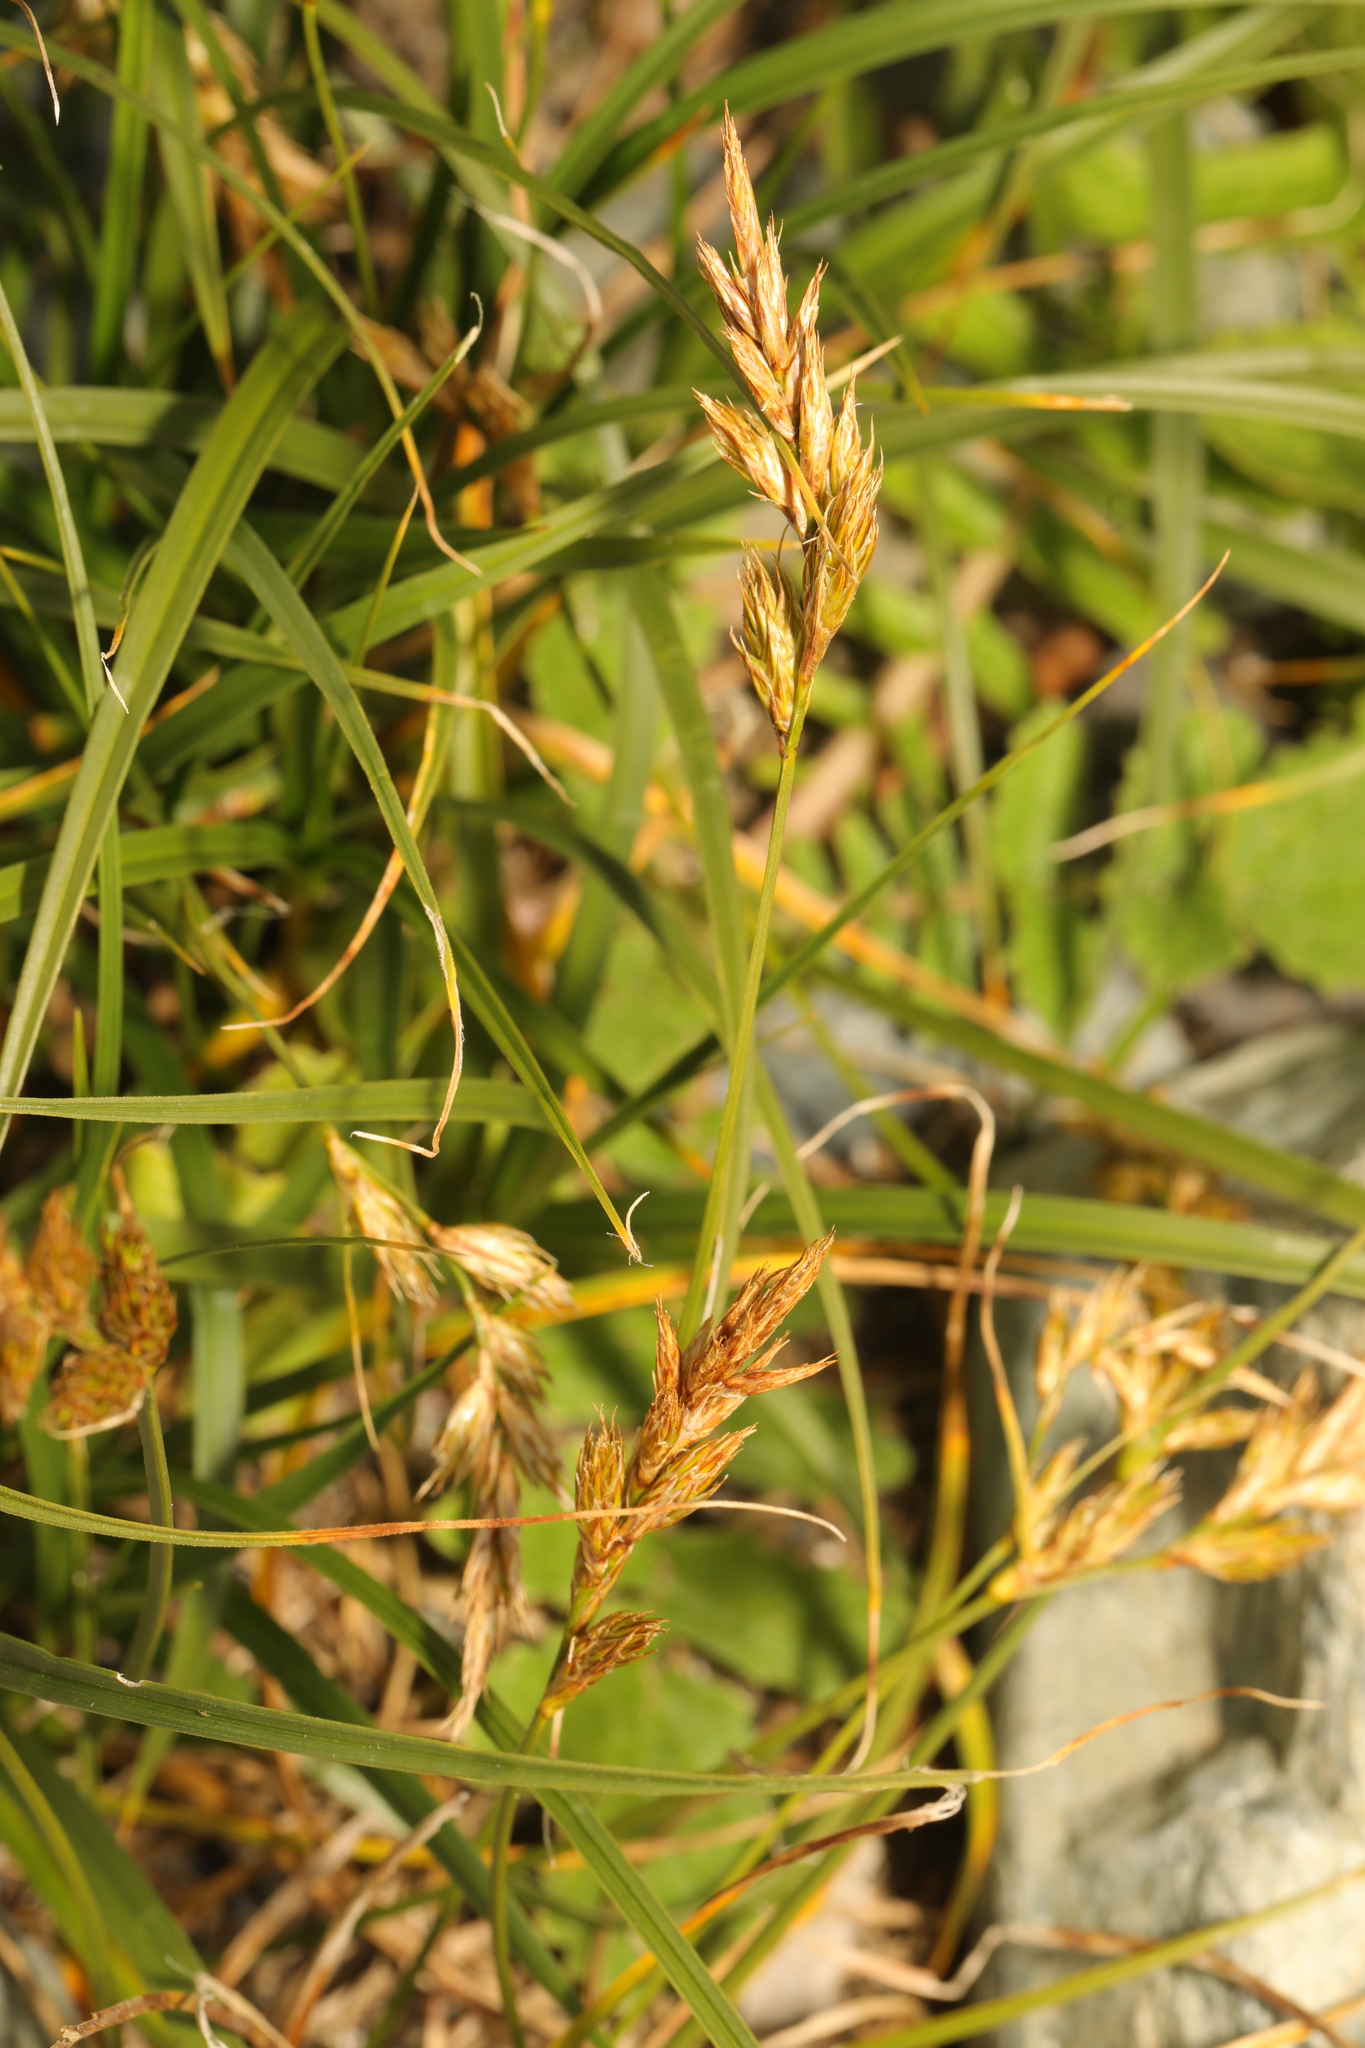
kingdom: Plantae
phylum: Tracheophyta
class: Liliopsida
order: Poales
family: Cyperaceae
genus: Carex
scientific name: Carex arenaria
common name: Sand sedge
